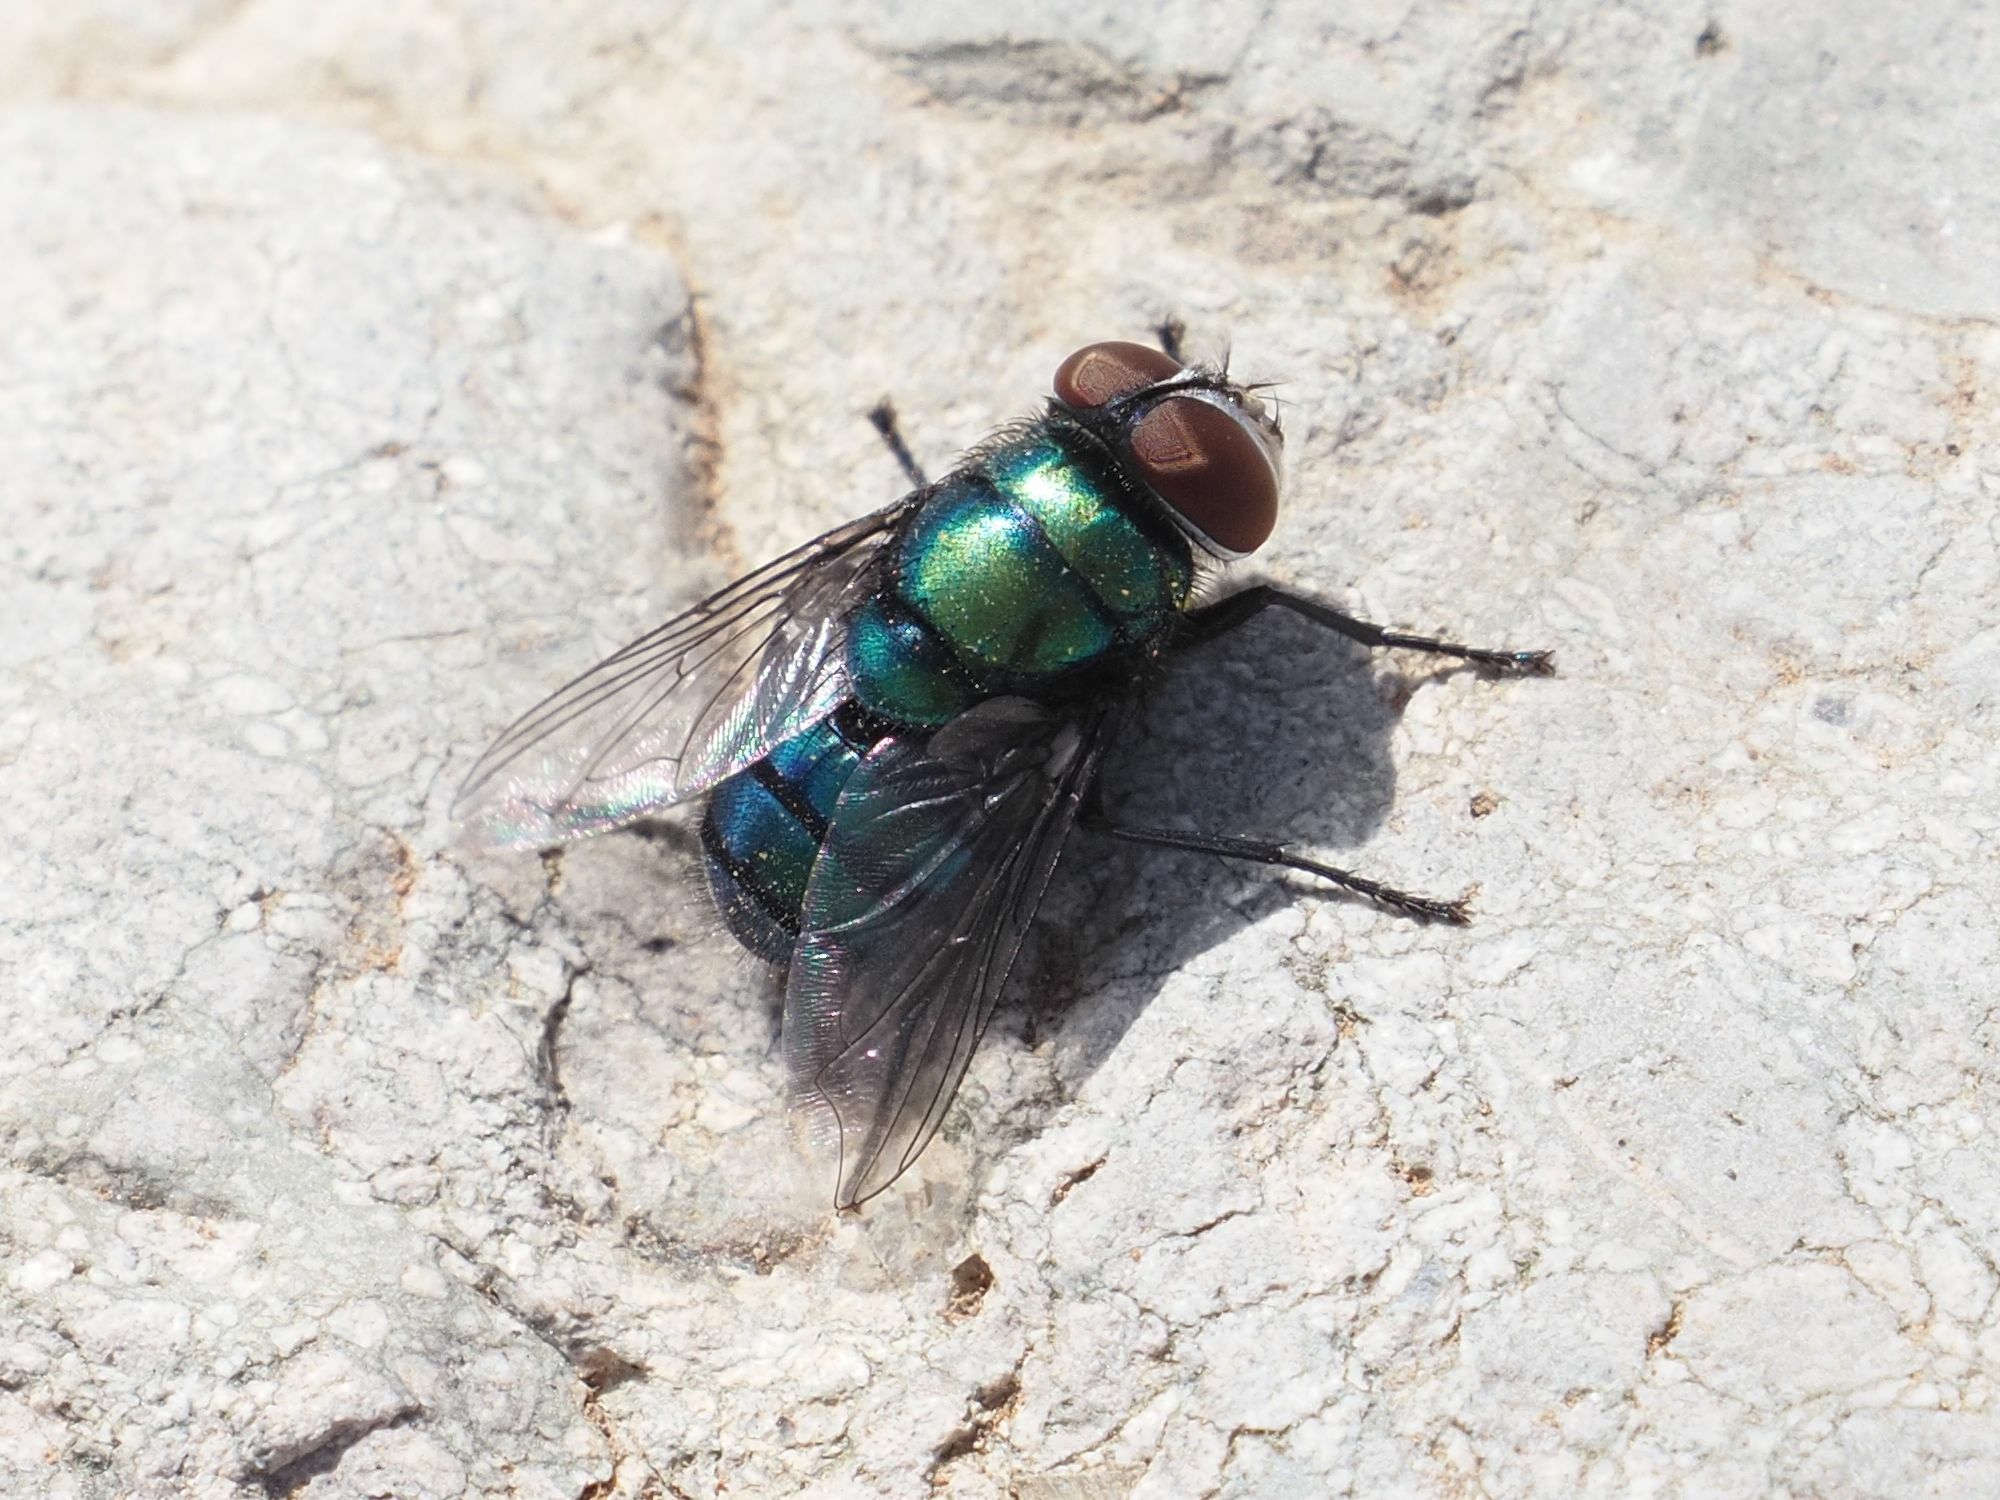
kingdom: Animalia
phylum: Arthropoda
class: Insecta
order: Diptera
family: Calliphoridae
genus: Chrysomya
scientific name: Chrysomya albiceps
